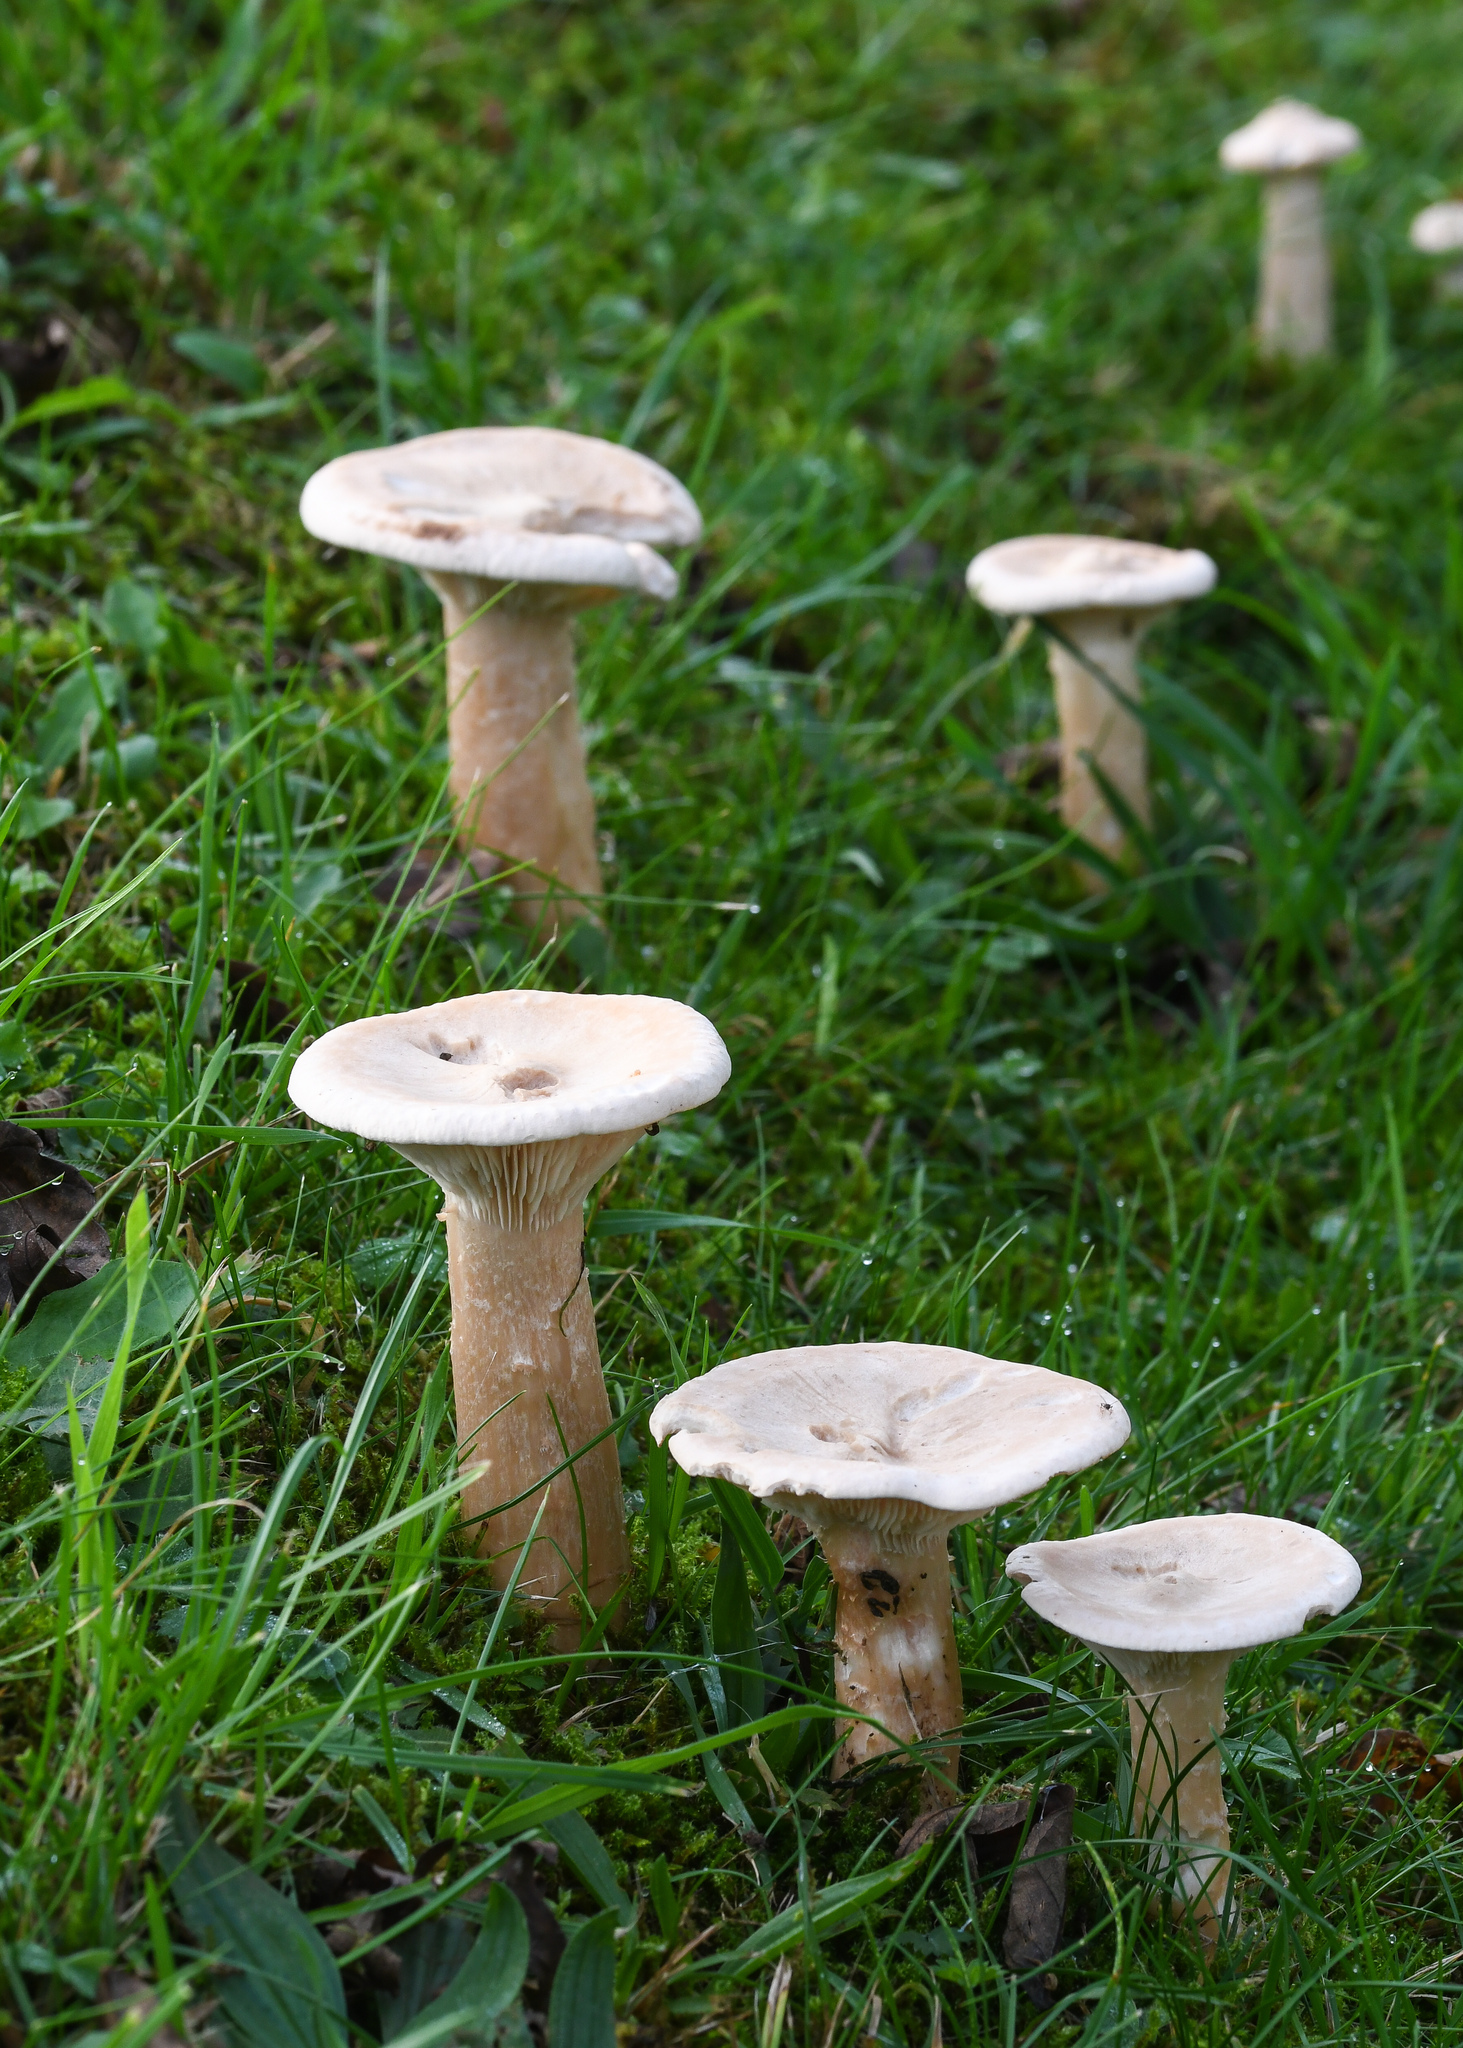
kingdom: Fungi
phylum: Basidiomycota
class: Agaricomycetes
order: Agaricales
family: Tricholomataceae
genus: Infundibulicybe
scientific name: Infundibulicybe geotropa
